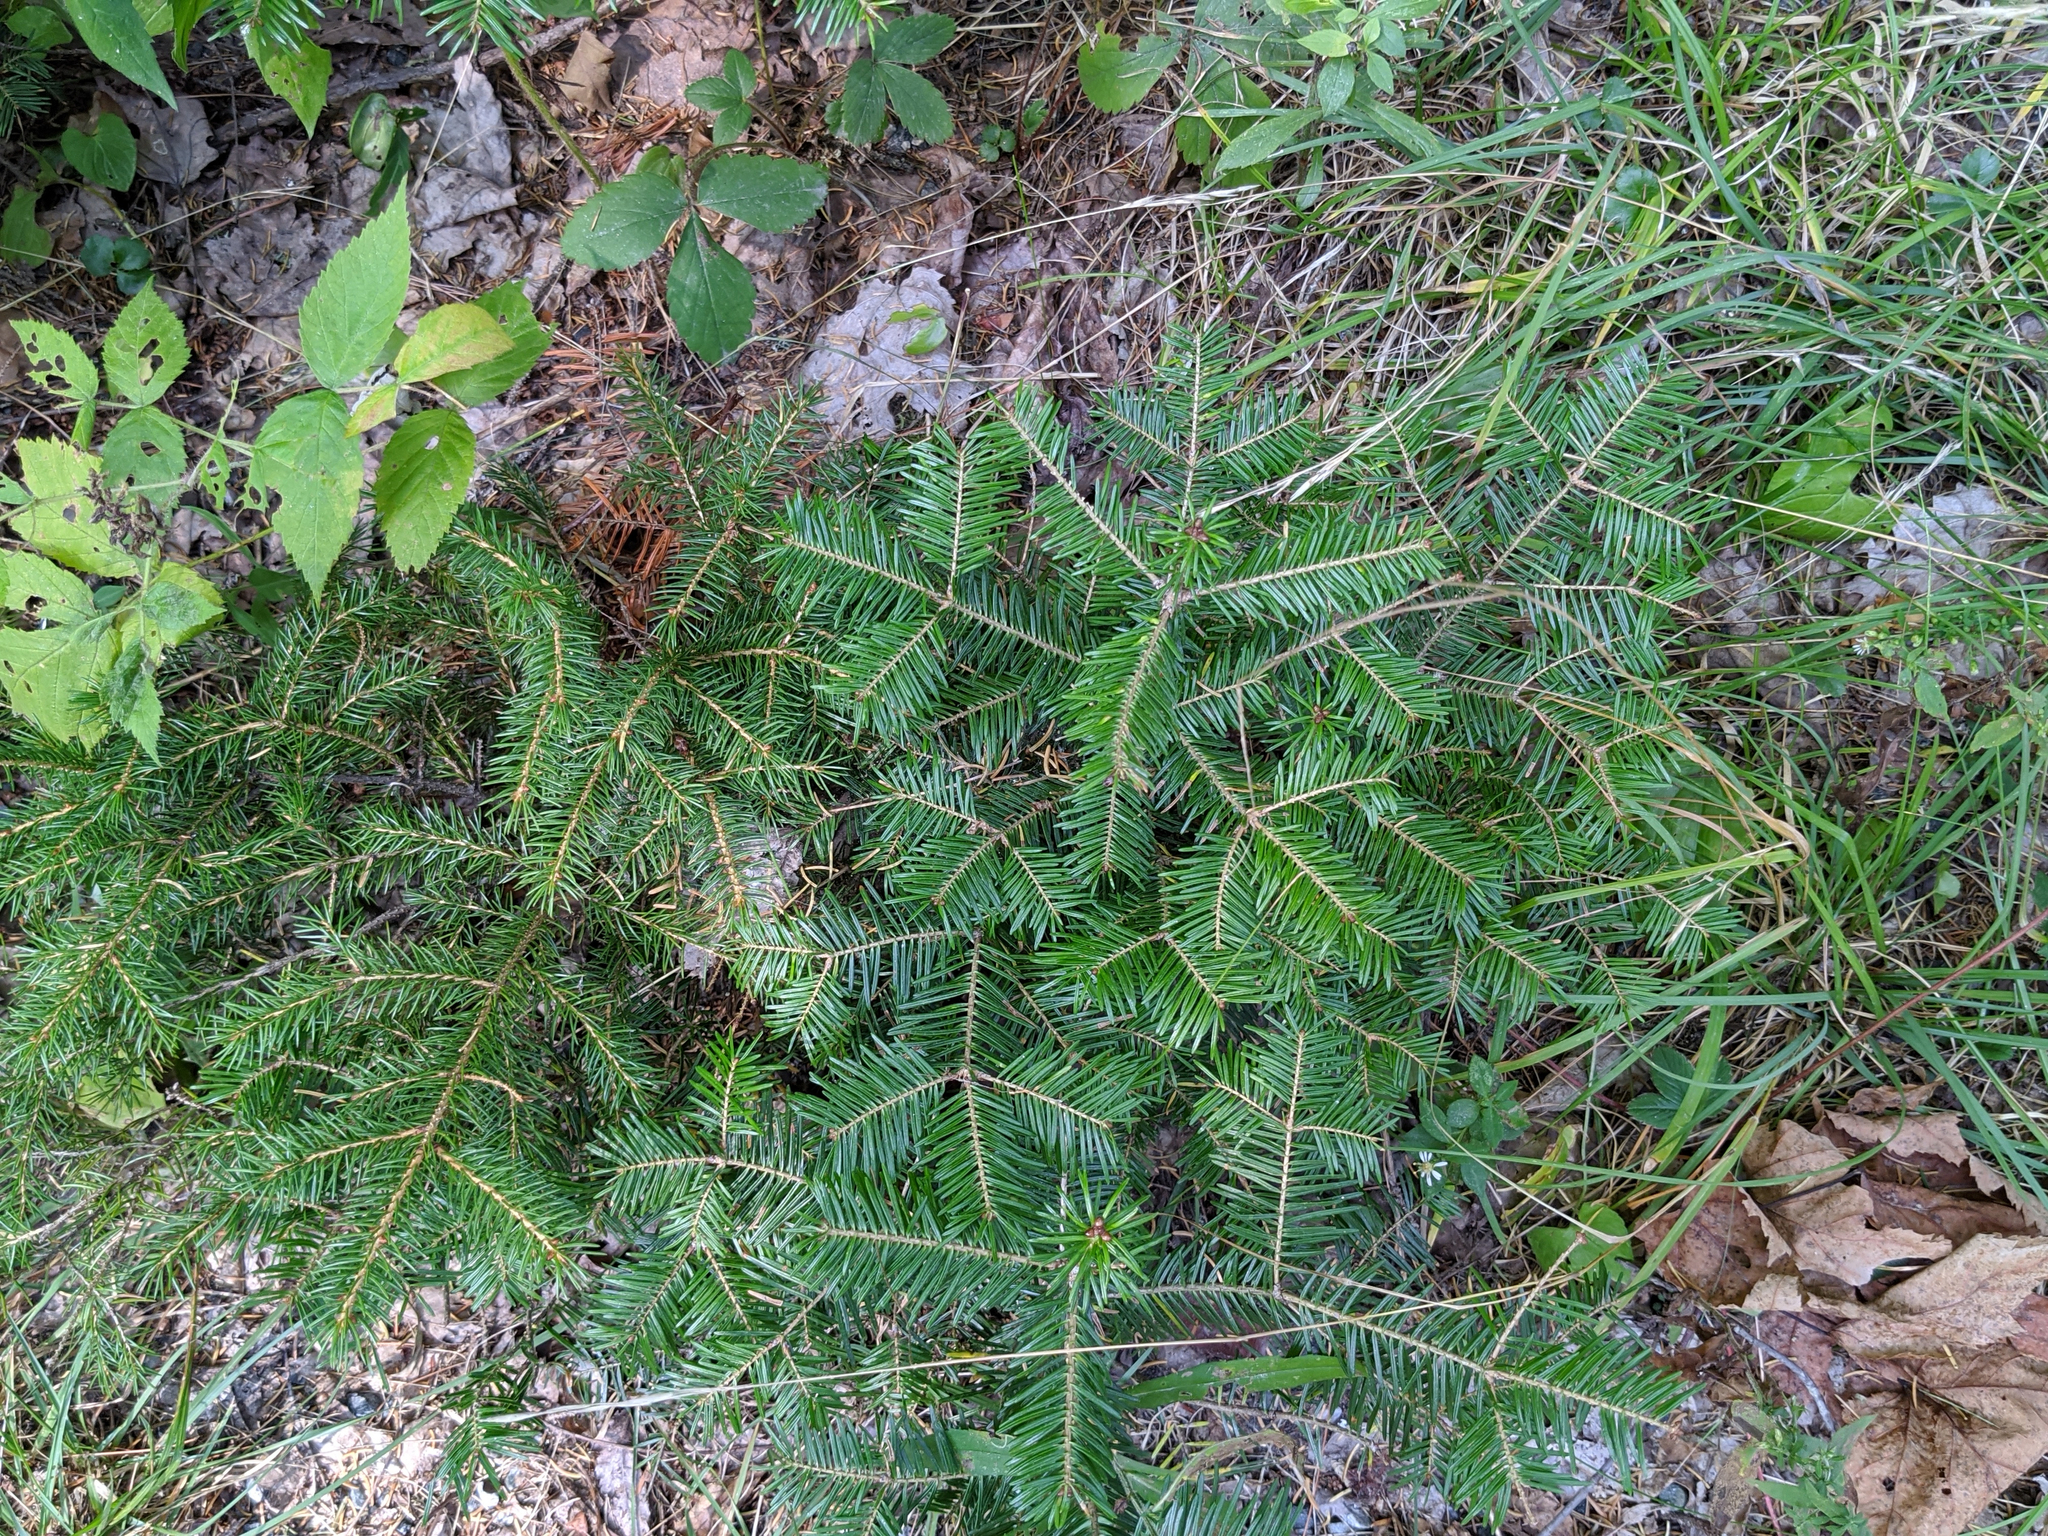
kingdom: Plantae
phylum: Tracheophyta
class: Pinopsida
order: Pinales
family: Pinaceae
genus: Abies
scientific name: Abies balsamea
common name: Balsam fir
